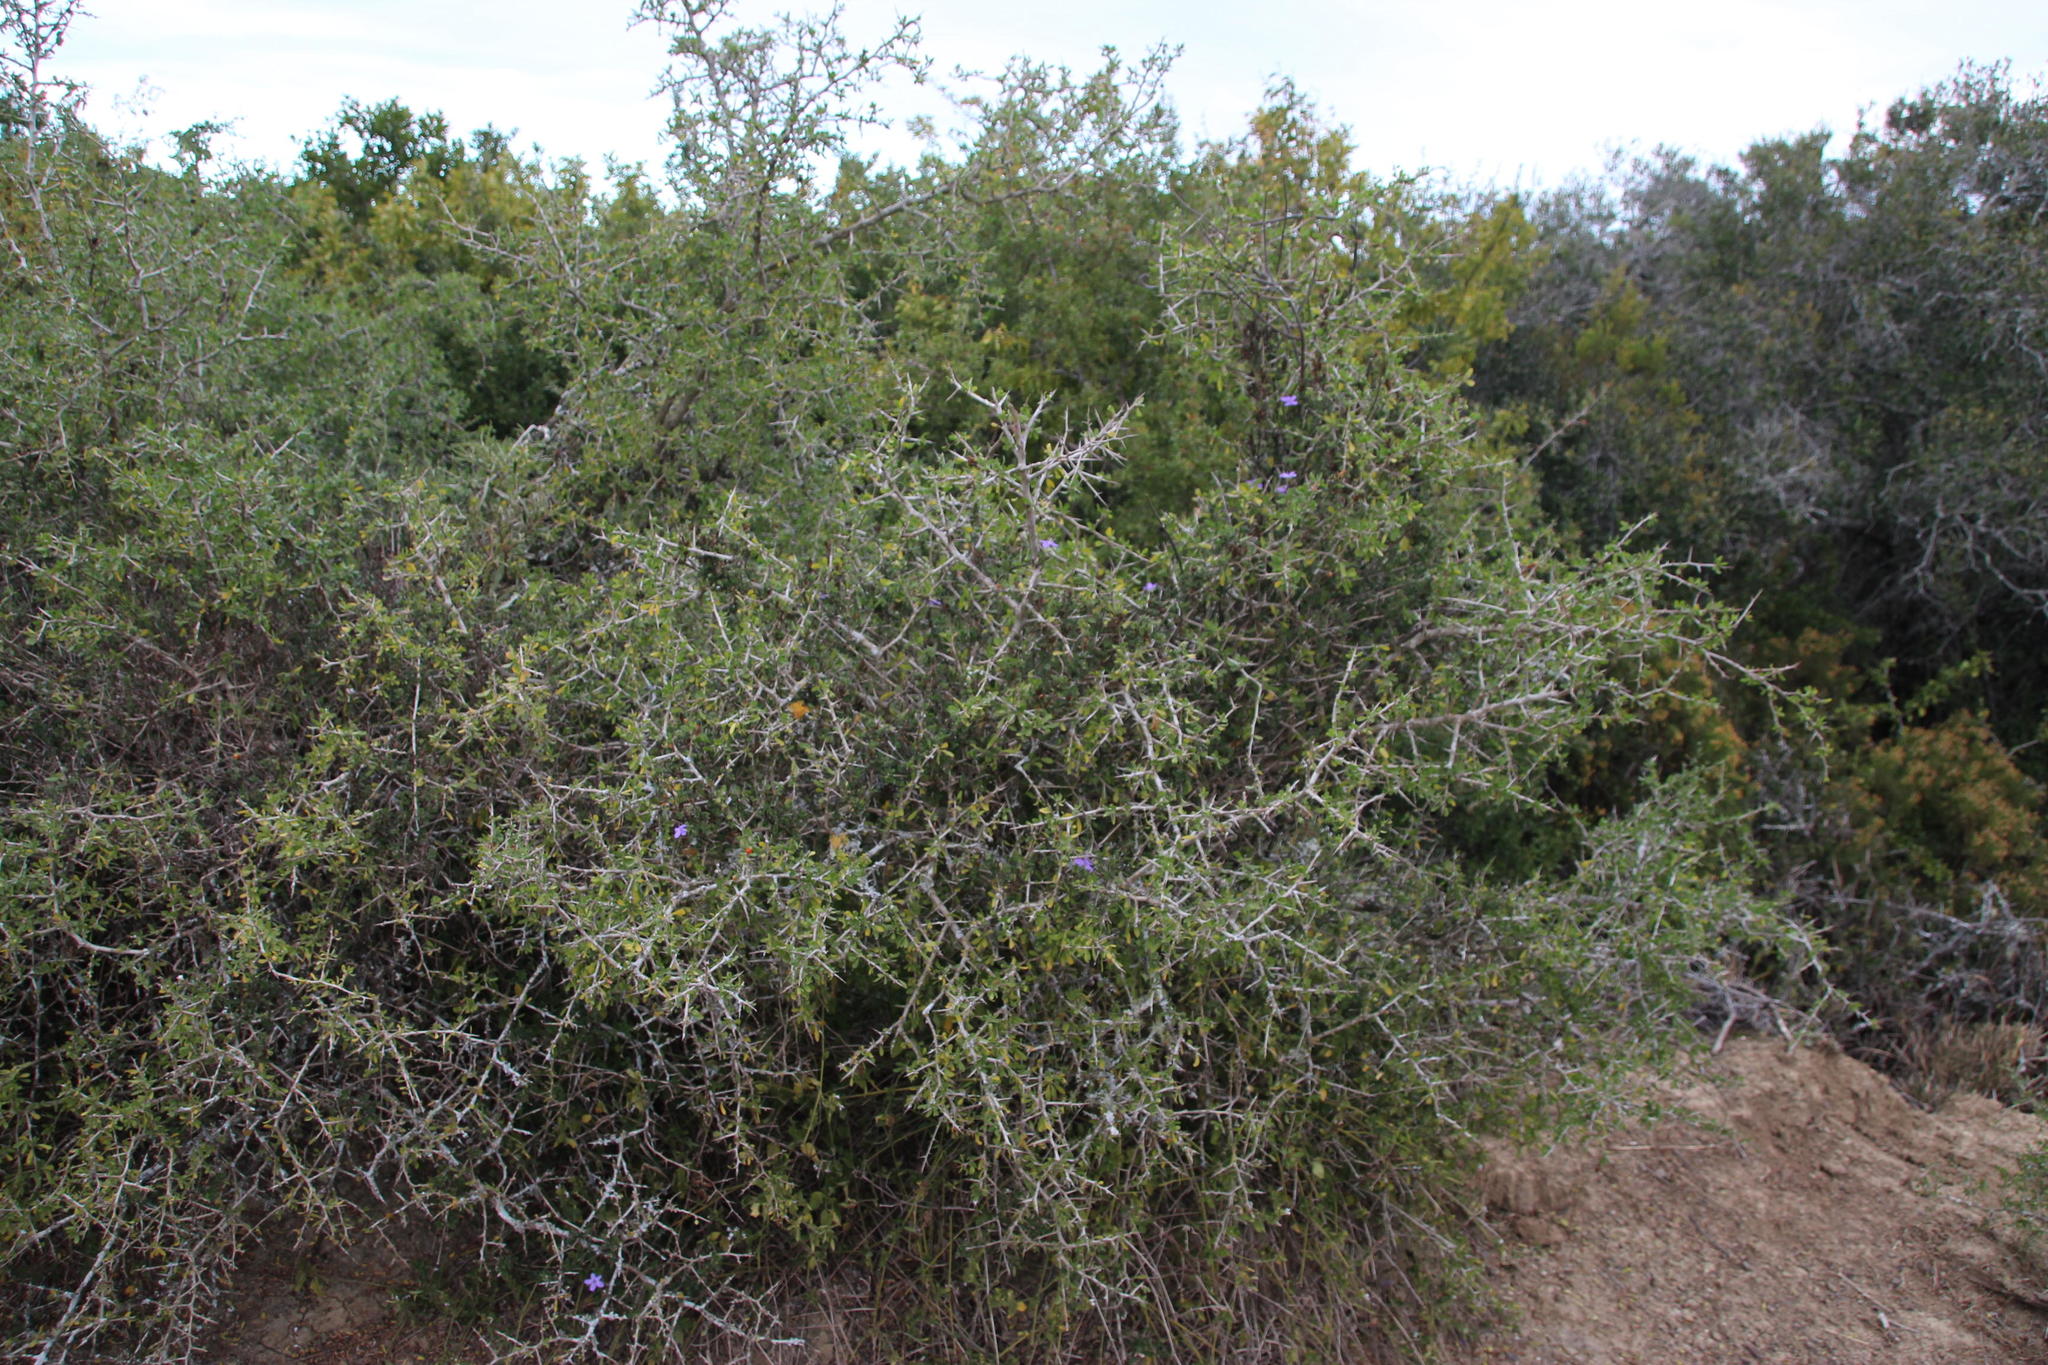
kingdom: Plantae
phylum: Tracheophyta
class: Magnoliopsida
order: Solanales
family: Solanaceae
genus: Lycium
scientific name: Lycium ferocissimum
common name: African boxthorn
